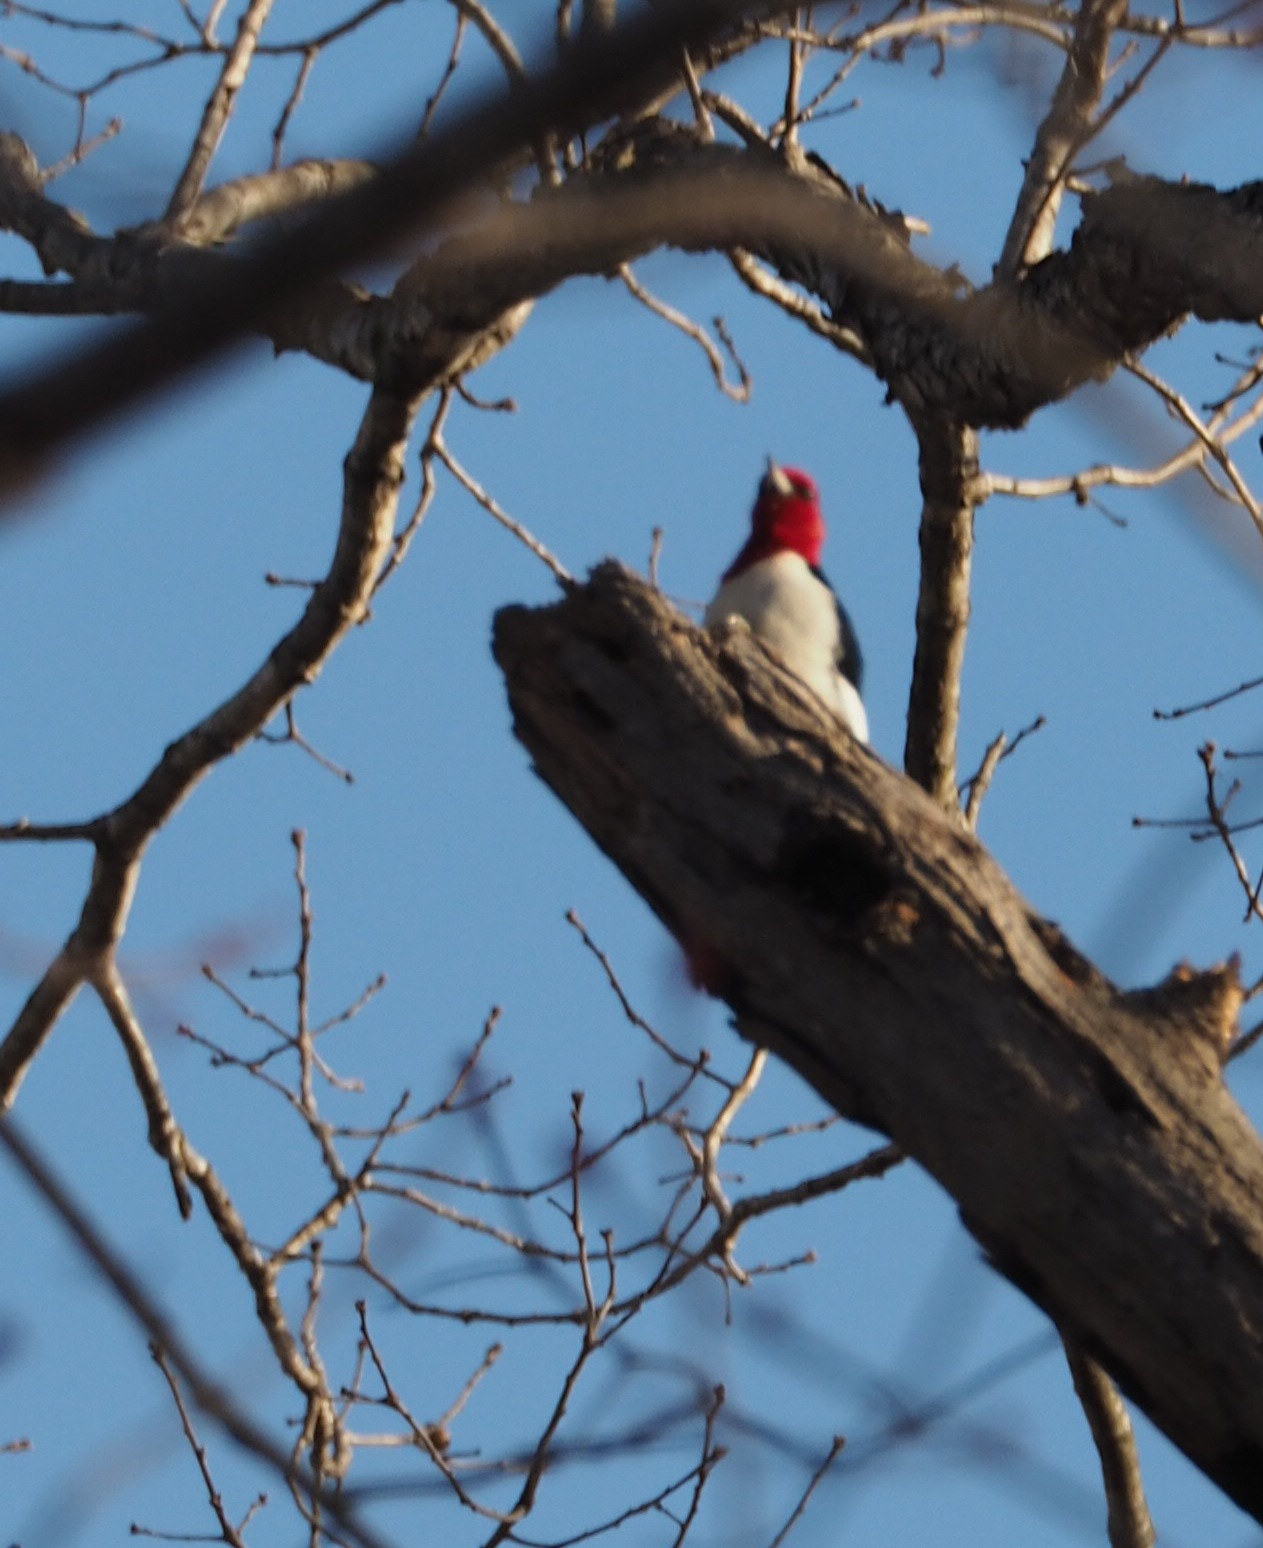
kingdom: Animalia
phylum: Chordata
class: Aves
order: Piciformes
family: Picidae
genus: Melanerpes
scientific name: Melanerpes erythrocephalus
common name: Red-headed woodpecker
